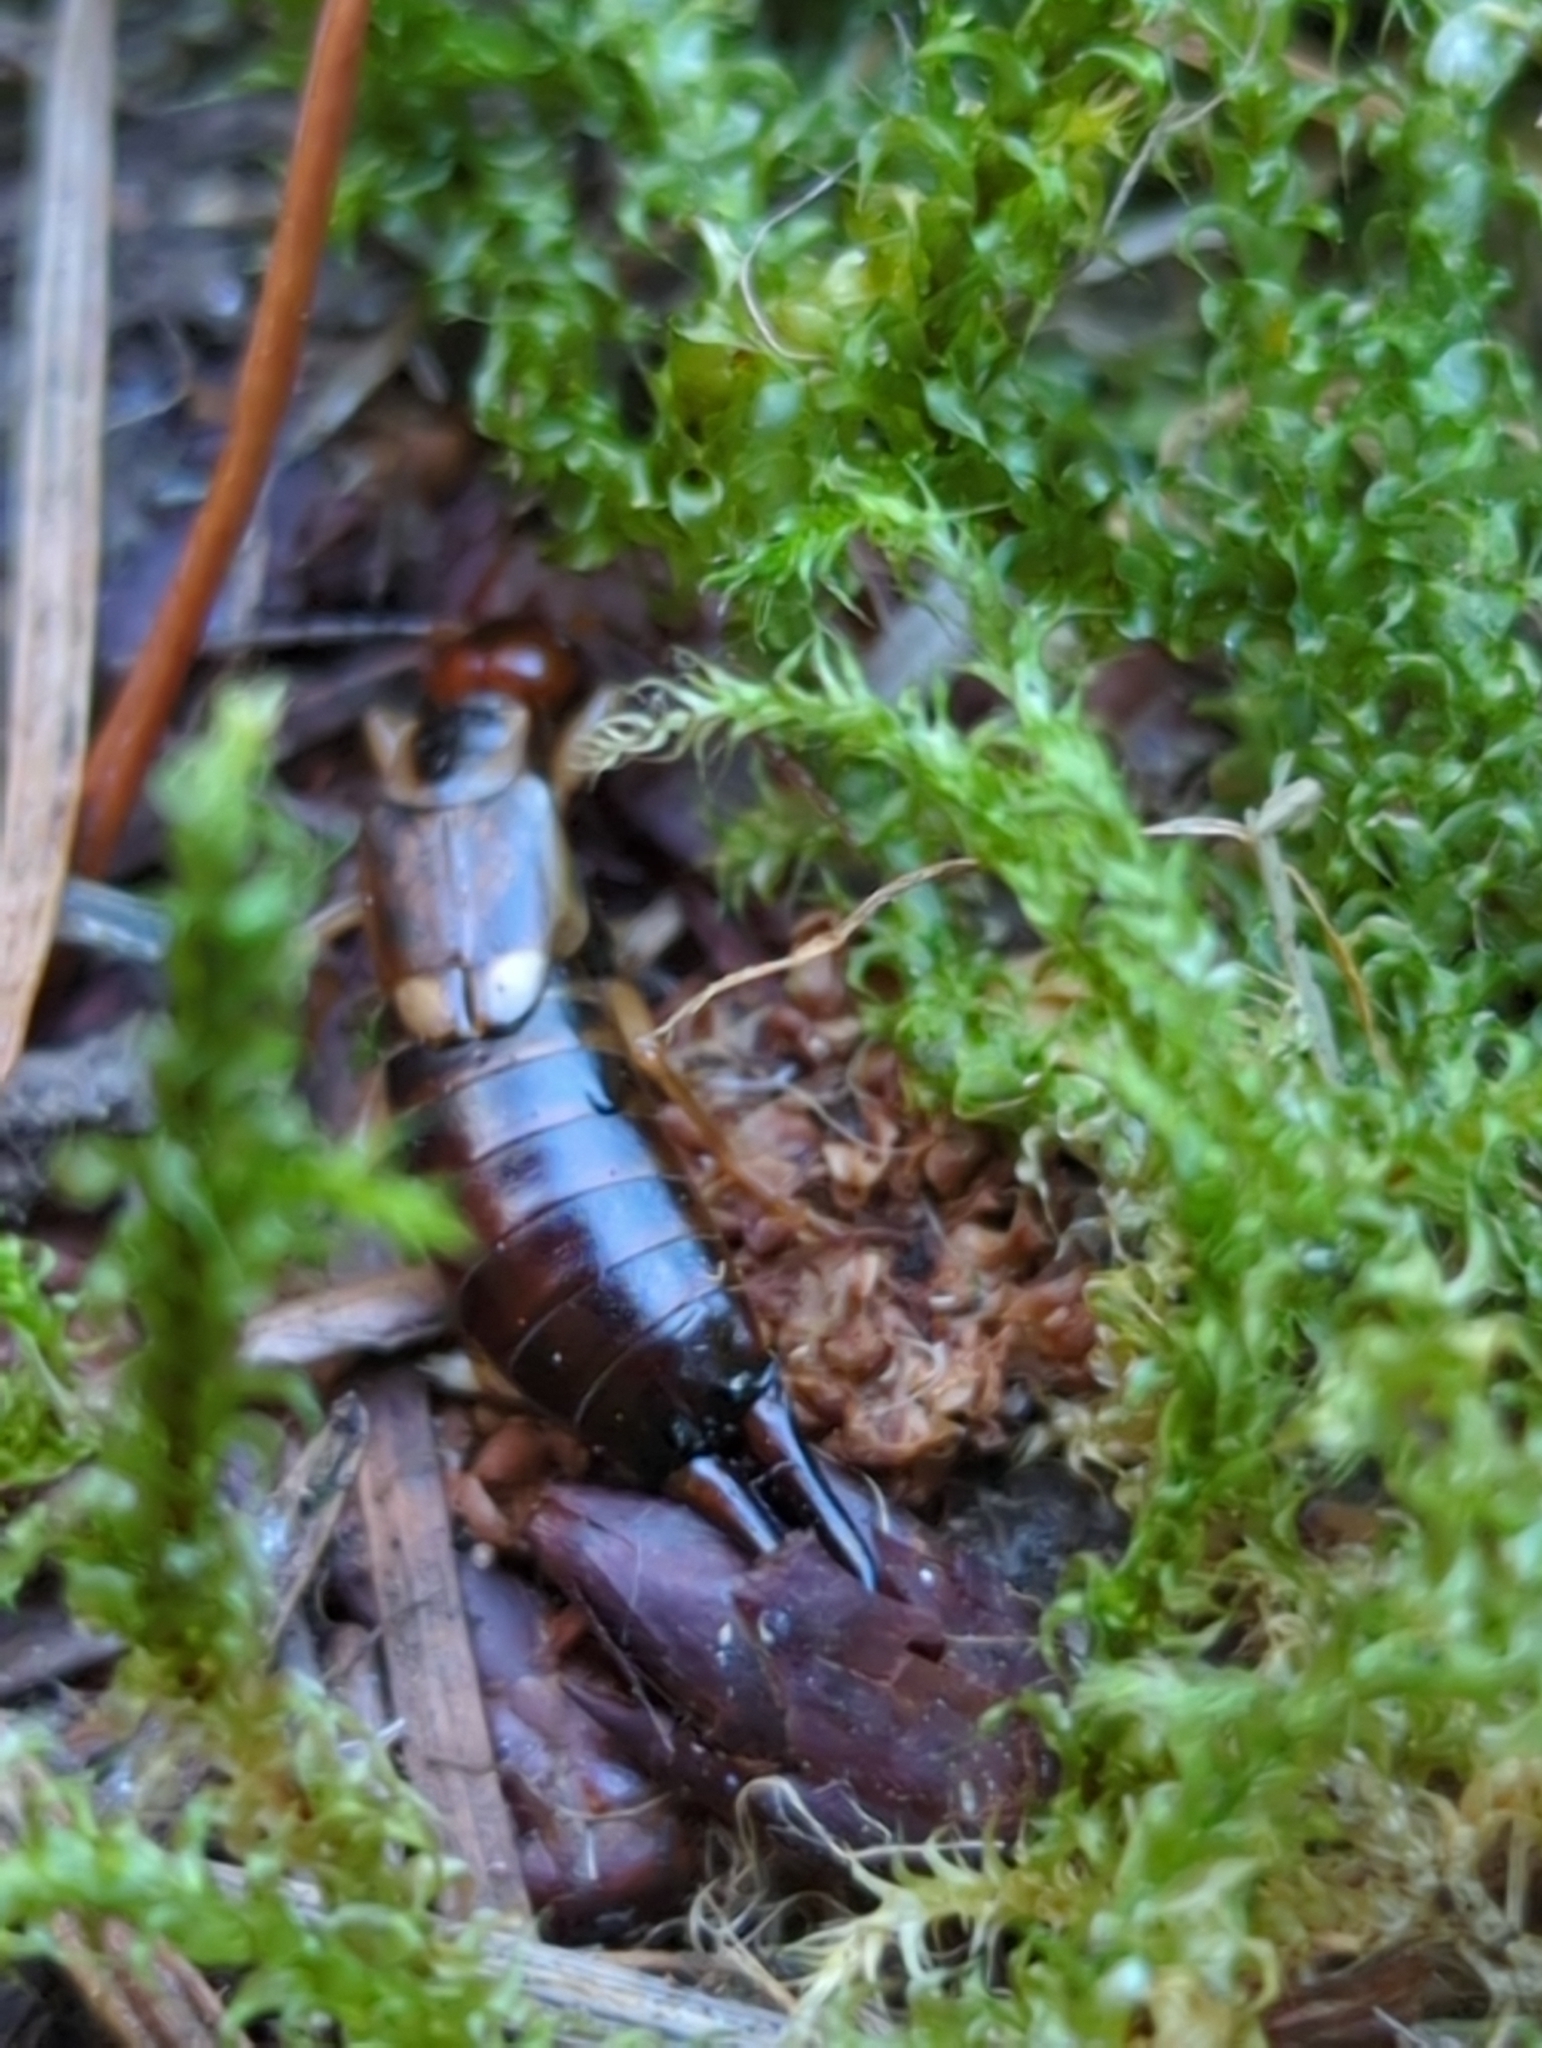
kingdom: Animalia
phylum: Arthropoda
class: Insecta
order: Dermaptera
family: Forficulidae
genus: Forficula
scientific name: Forficula dentata
